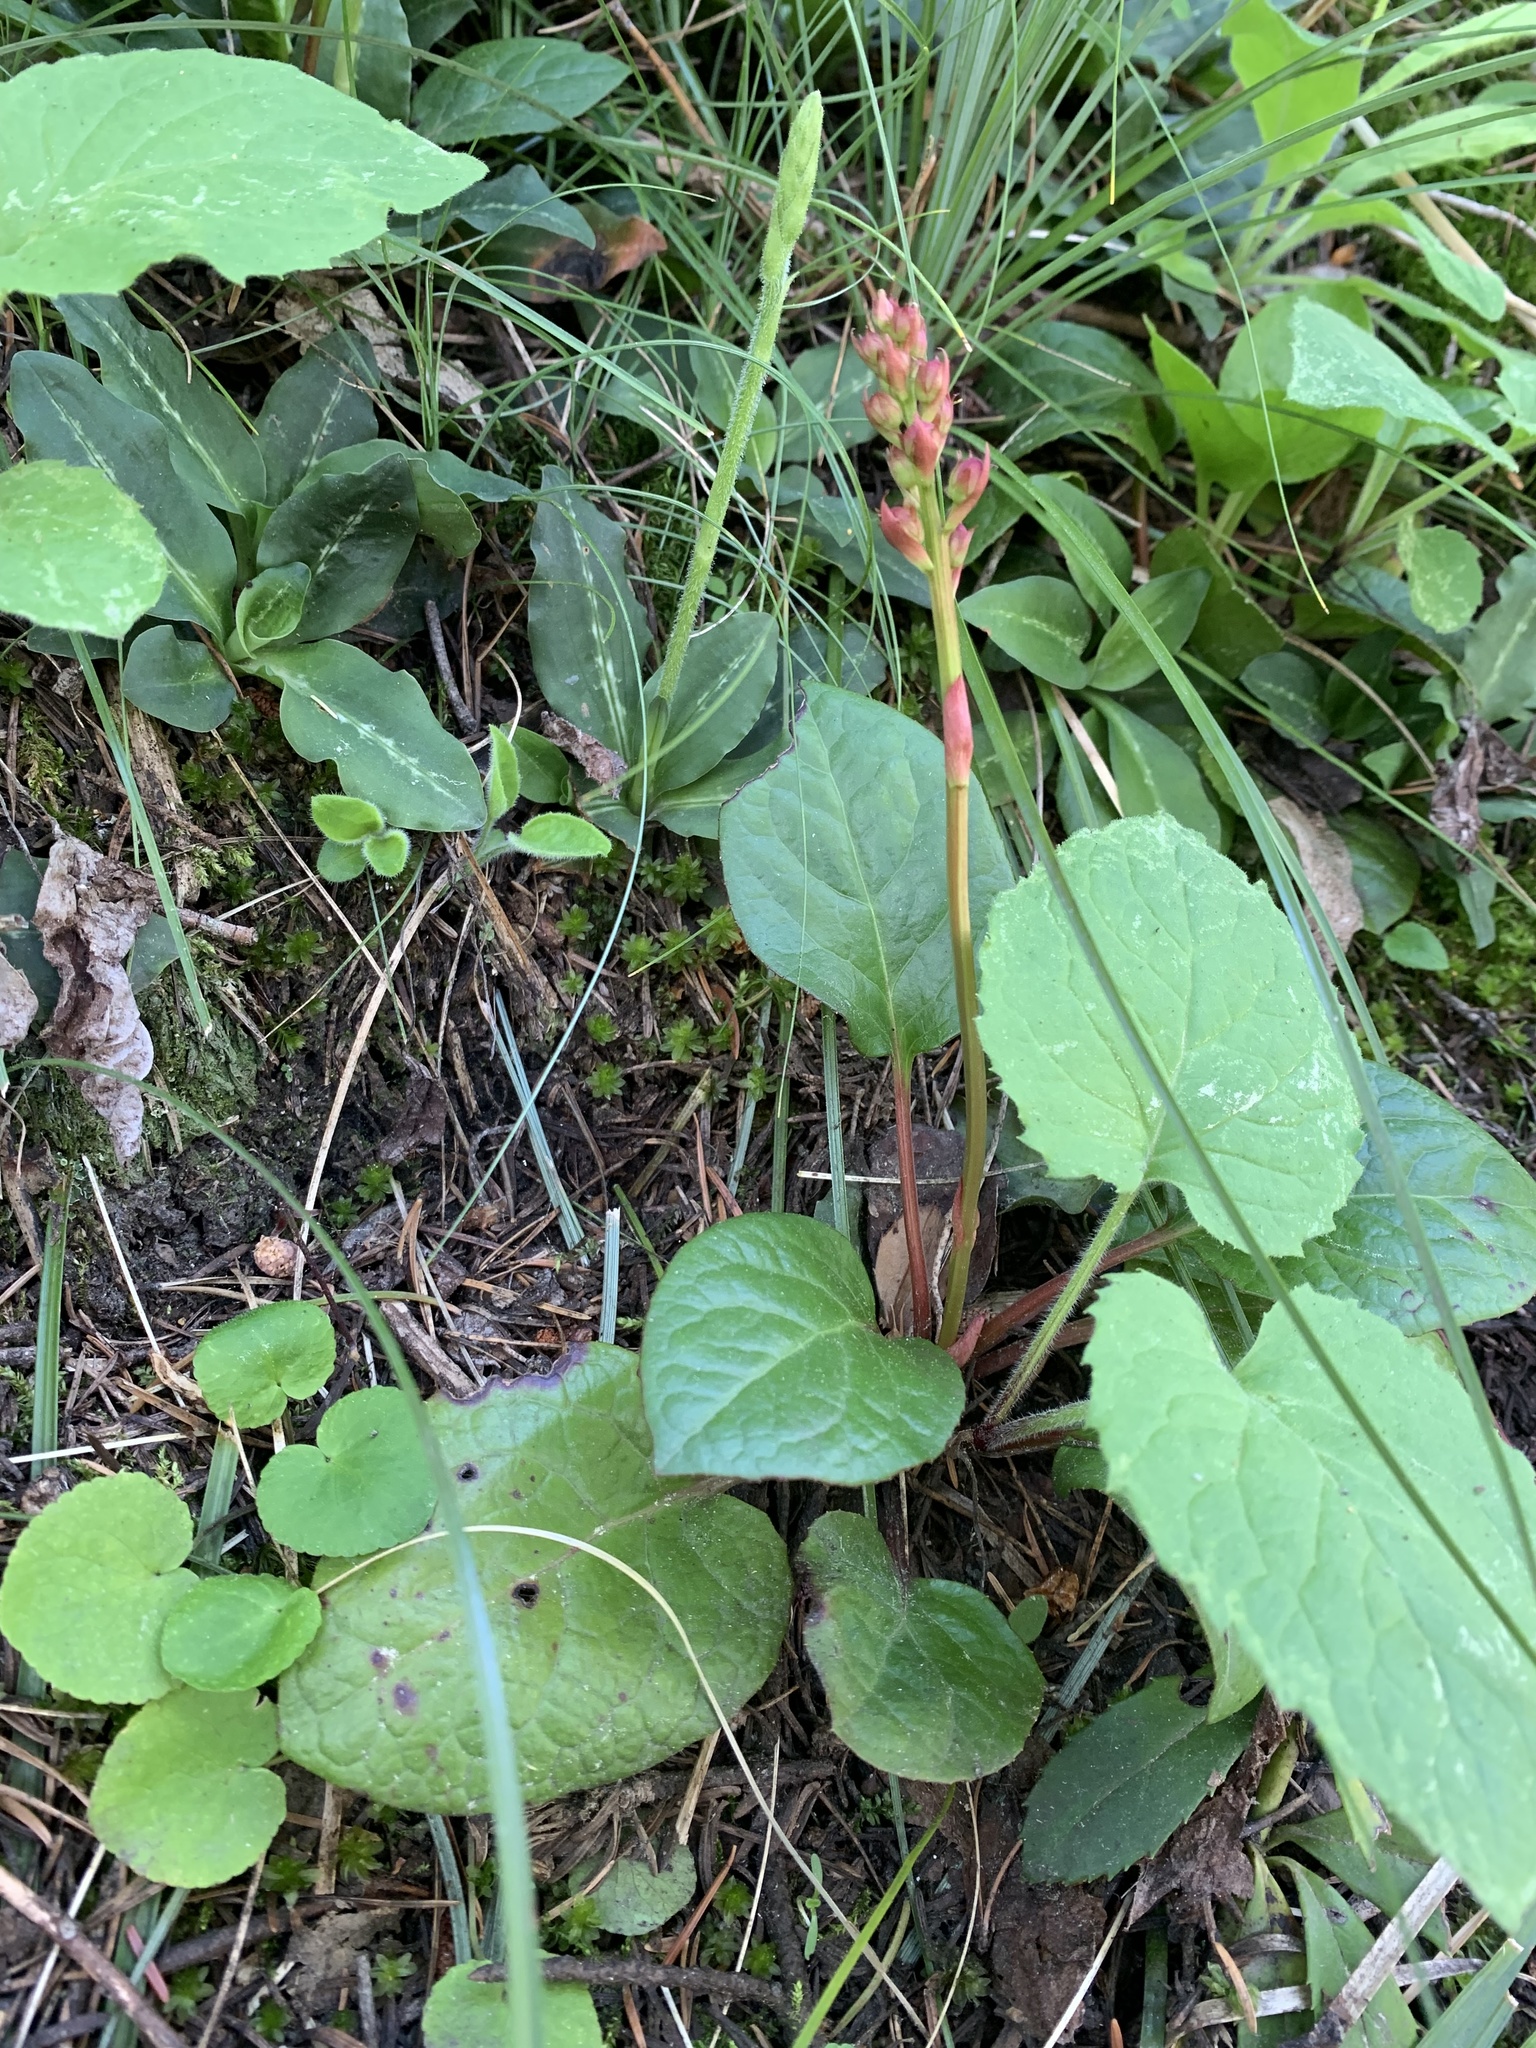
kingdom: Plantae
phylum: Tracheophyta
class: Magnoliopsida
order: Ericales
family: Ericaceae
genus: Pyrola
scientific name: Pyrola asarifolia
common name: Bog wintergreen
